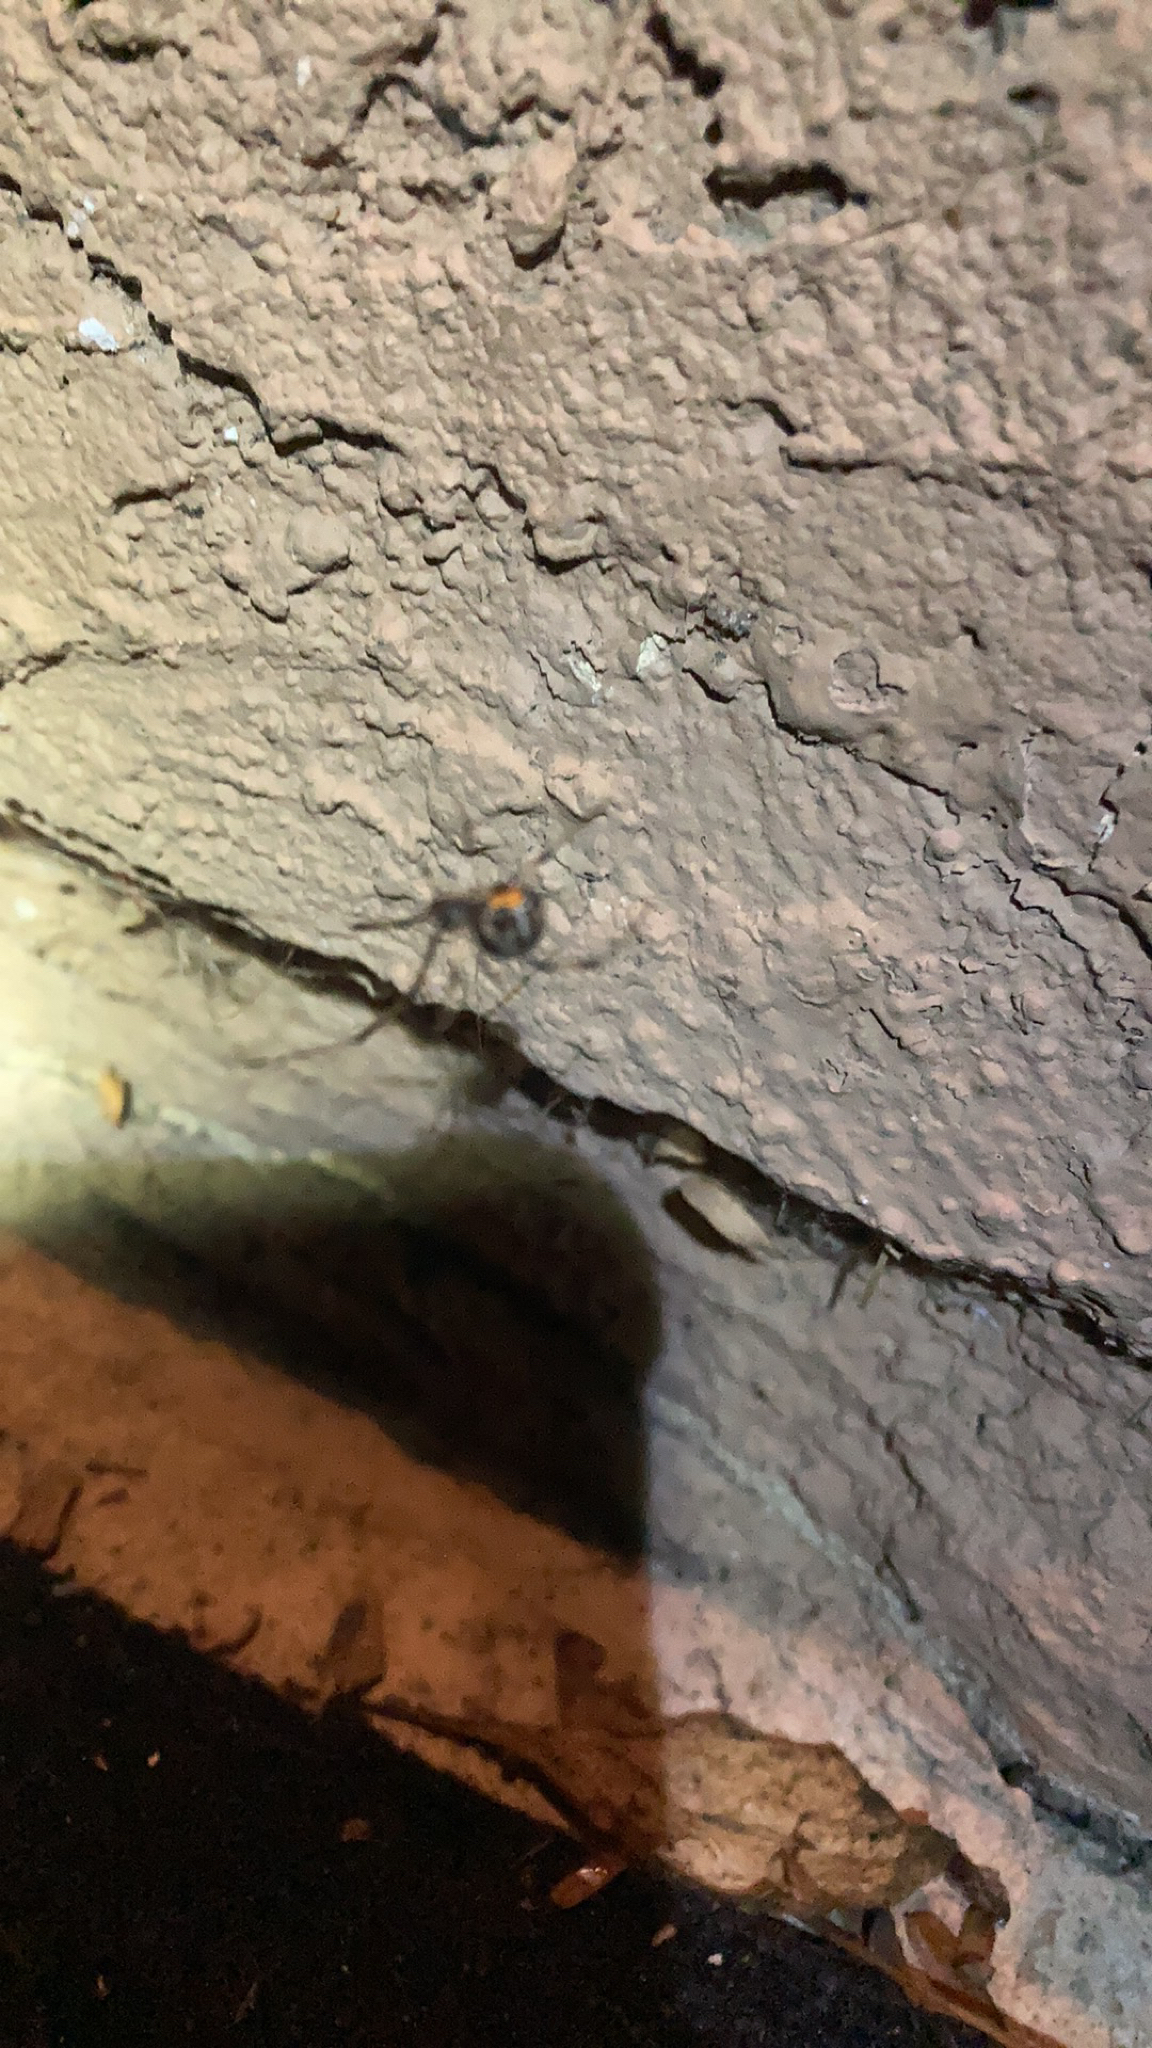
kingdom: Animalia
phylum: Arthropoda
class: Arachnida
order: Araneae
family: Theridiidae
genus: Latrodectus
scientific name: Latrodectus geometricus
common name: Brown widow spider
